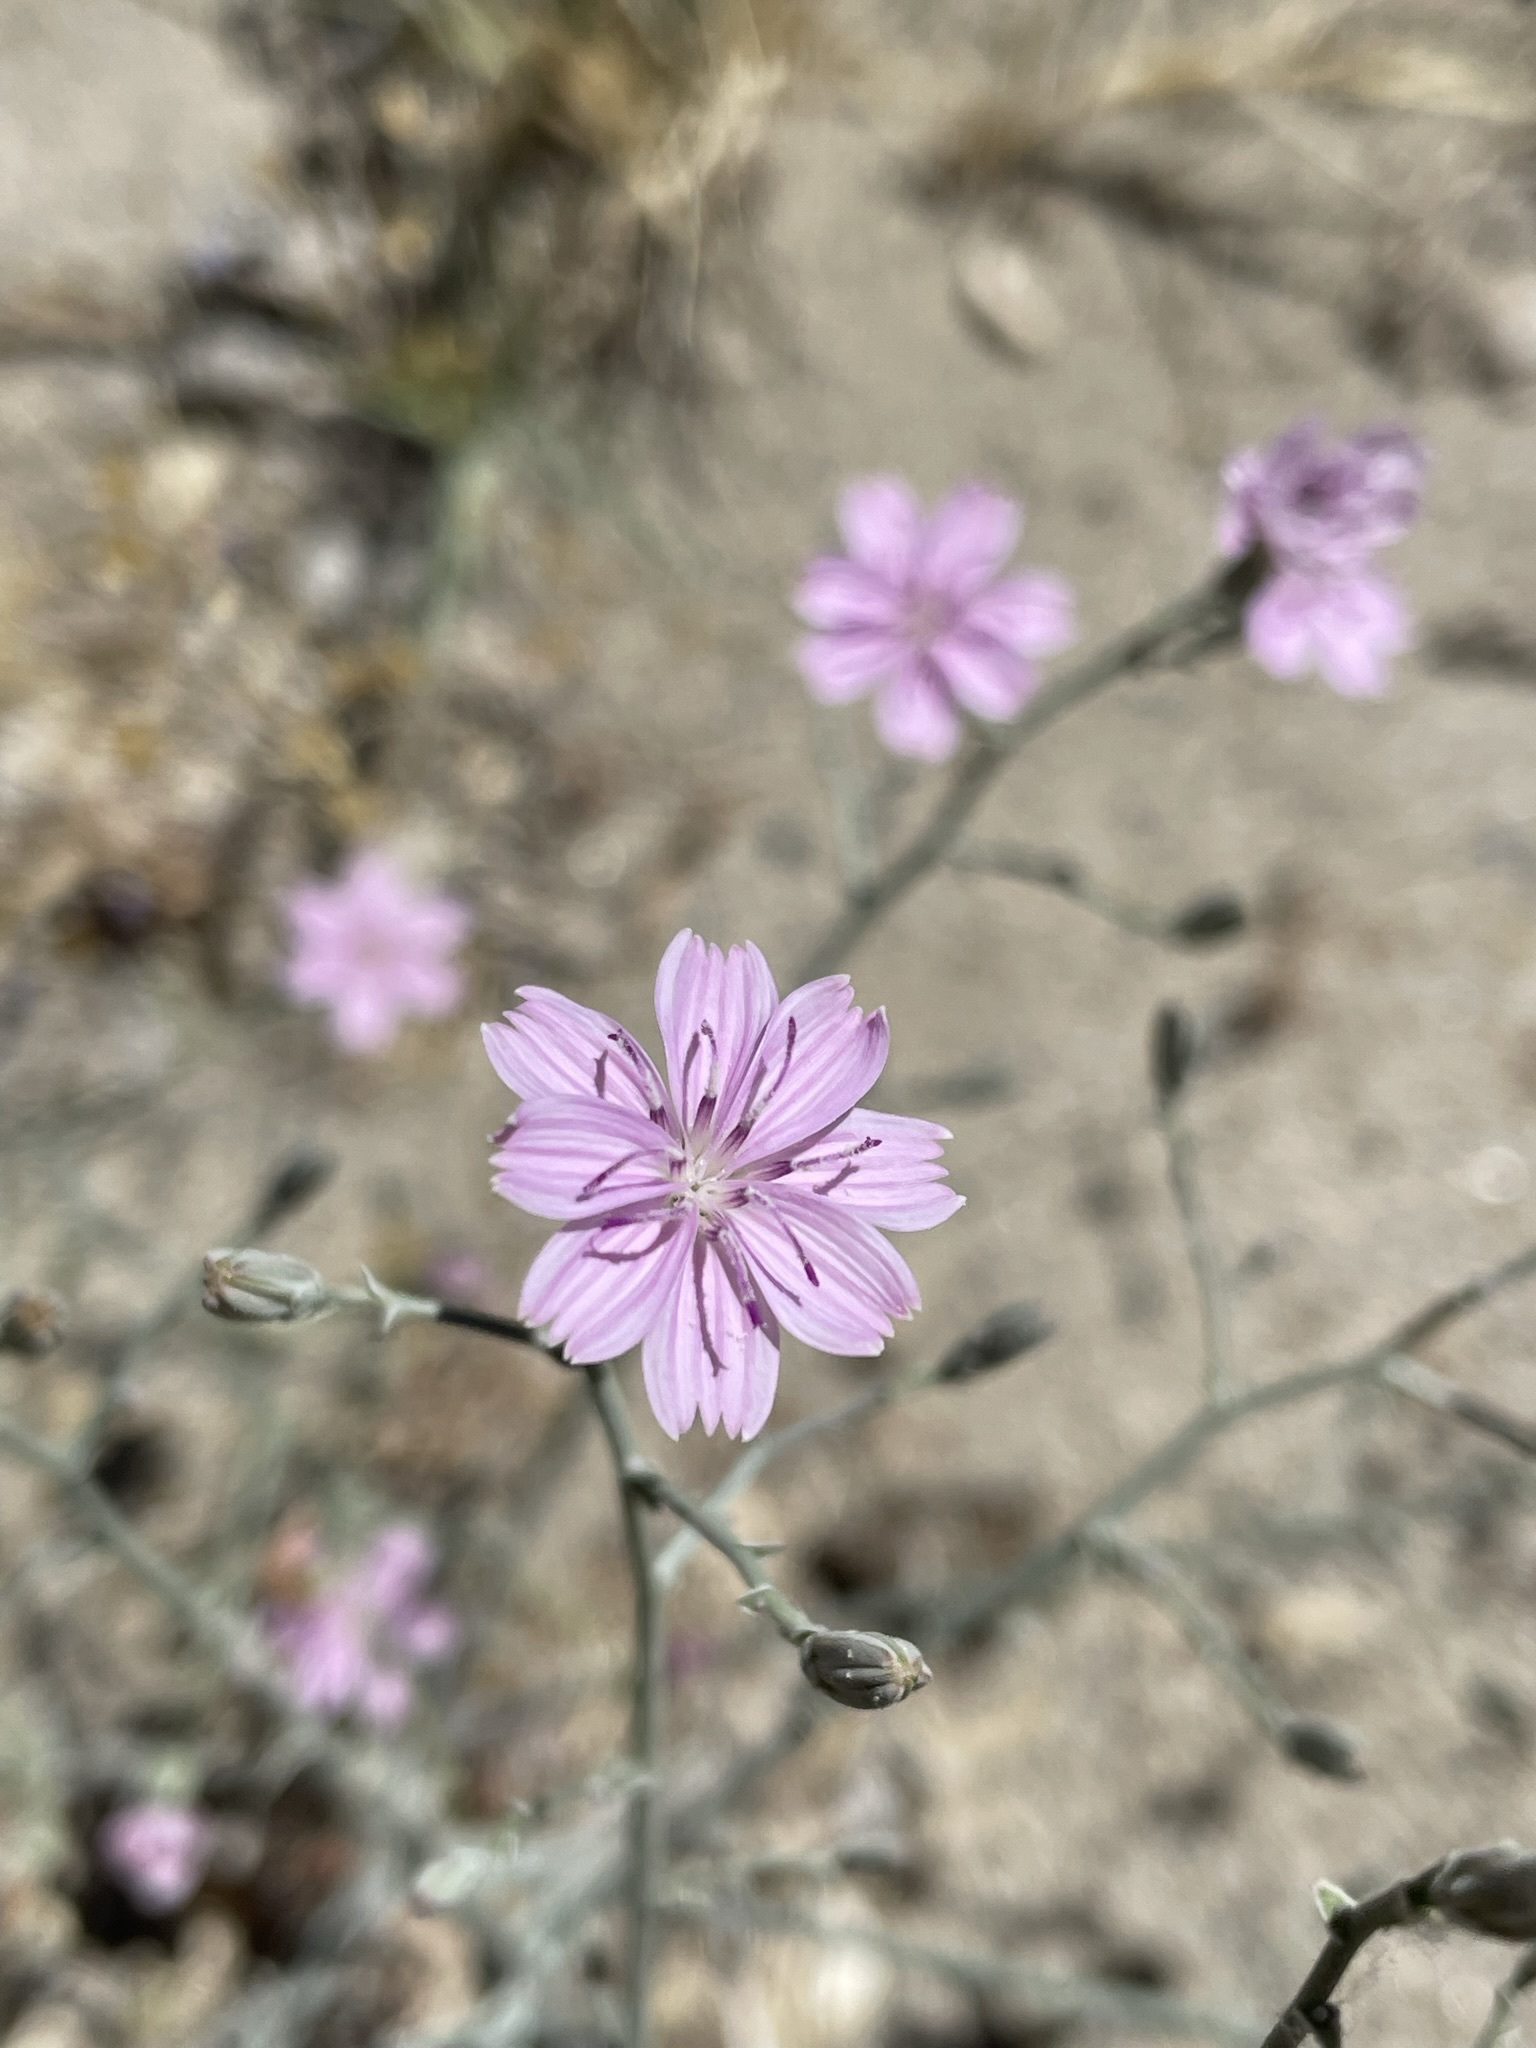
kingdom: Plantae
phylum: Tracheophyta
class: Magnoliopsida
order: Asterales
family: Asteraceae
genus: Stephanomeria
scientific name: Stephanomeria exigua
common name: Small wirelettuce
